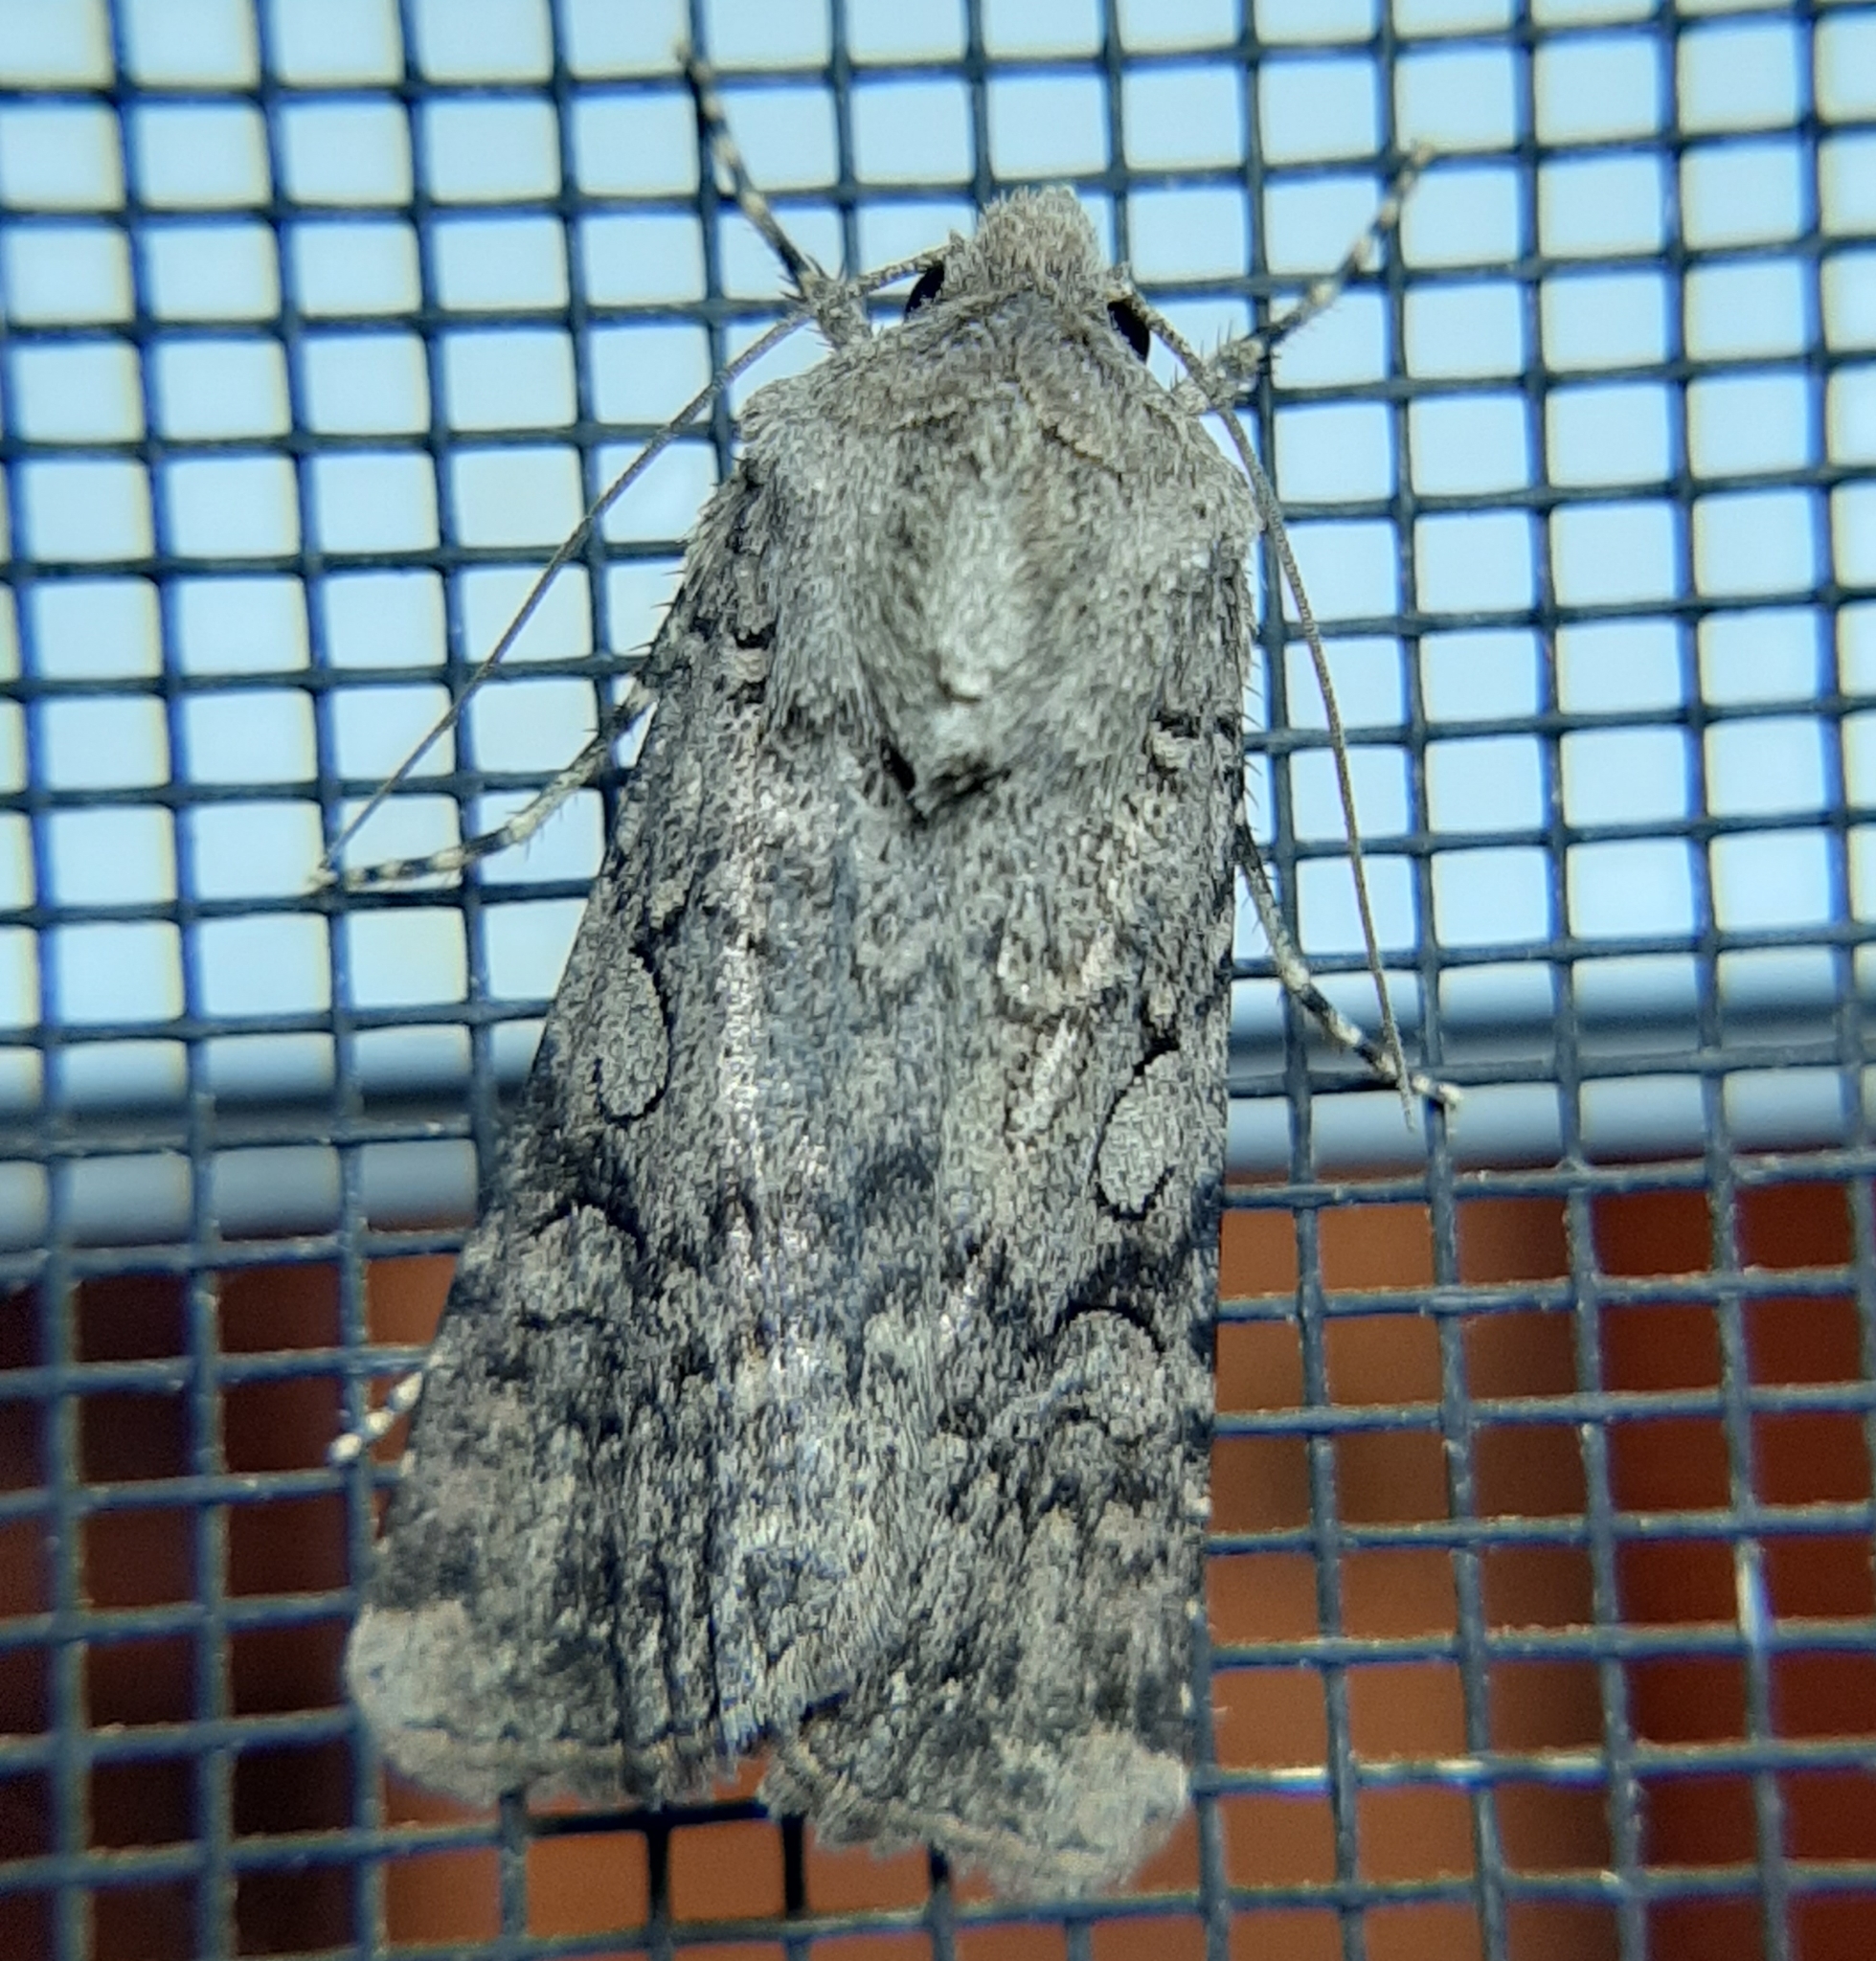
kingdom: Animalia
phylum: Arthropoda
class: Insecta
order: Lepidoptera
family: Noctuidae
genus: Euxoa
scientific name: Euxoa messoria
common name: Darksided cutworm
